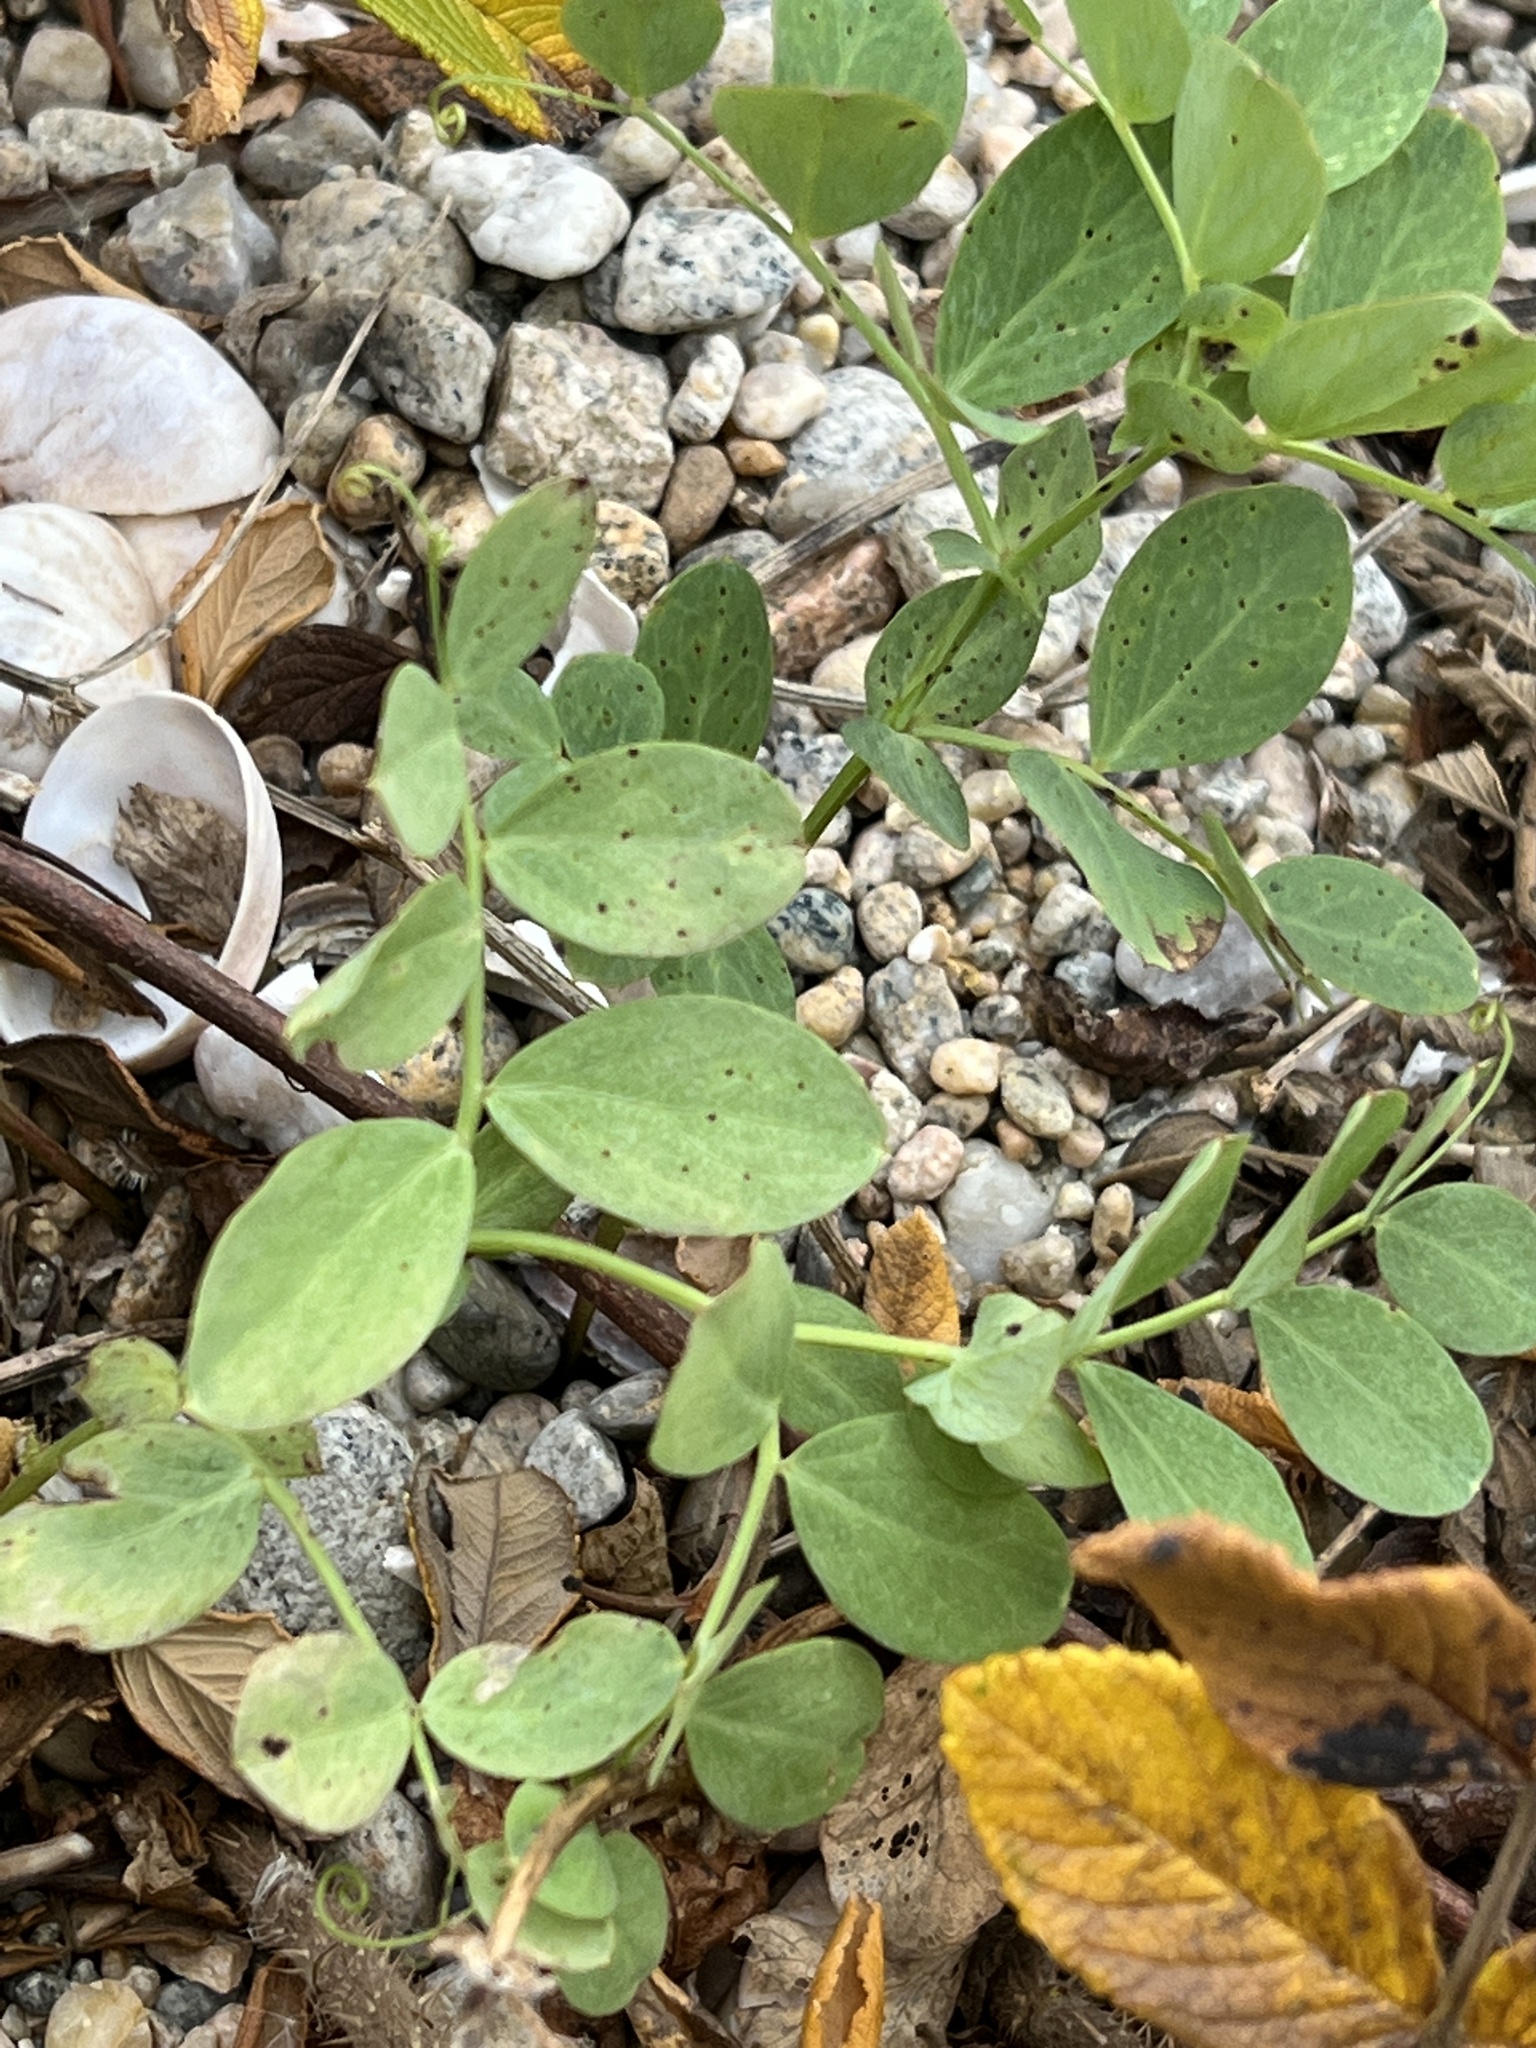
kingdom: Plantae
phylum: Tracheophyta
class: Magnoliopsida
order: Fabales
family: Fabaceae
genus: Lathyrus
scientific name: Lathyrus japonicus
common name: Sea pea
